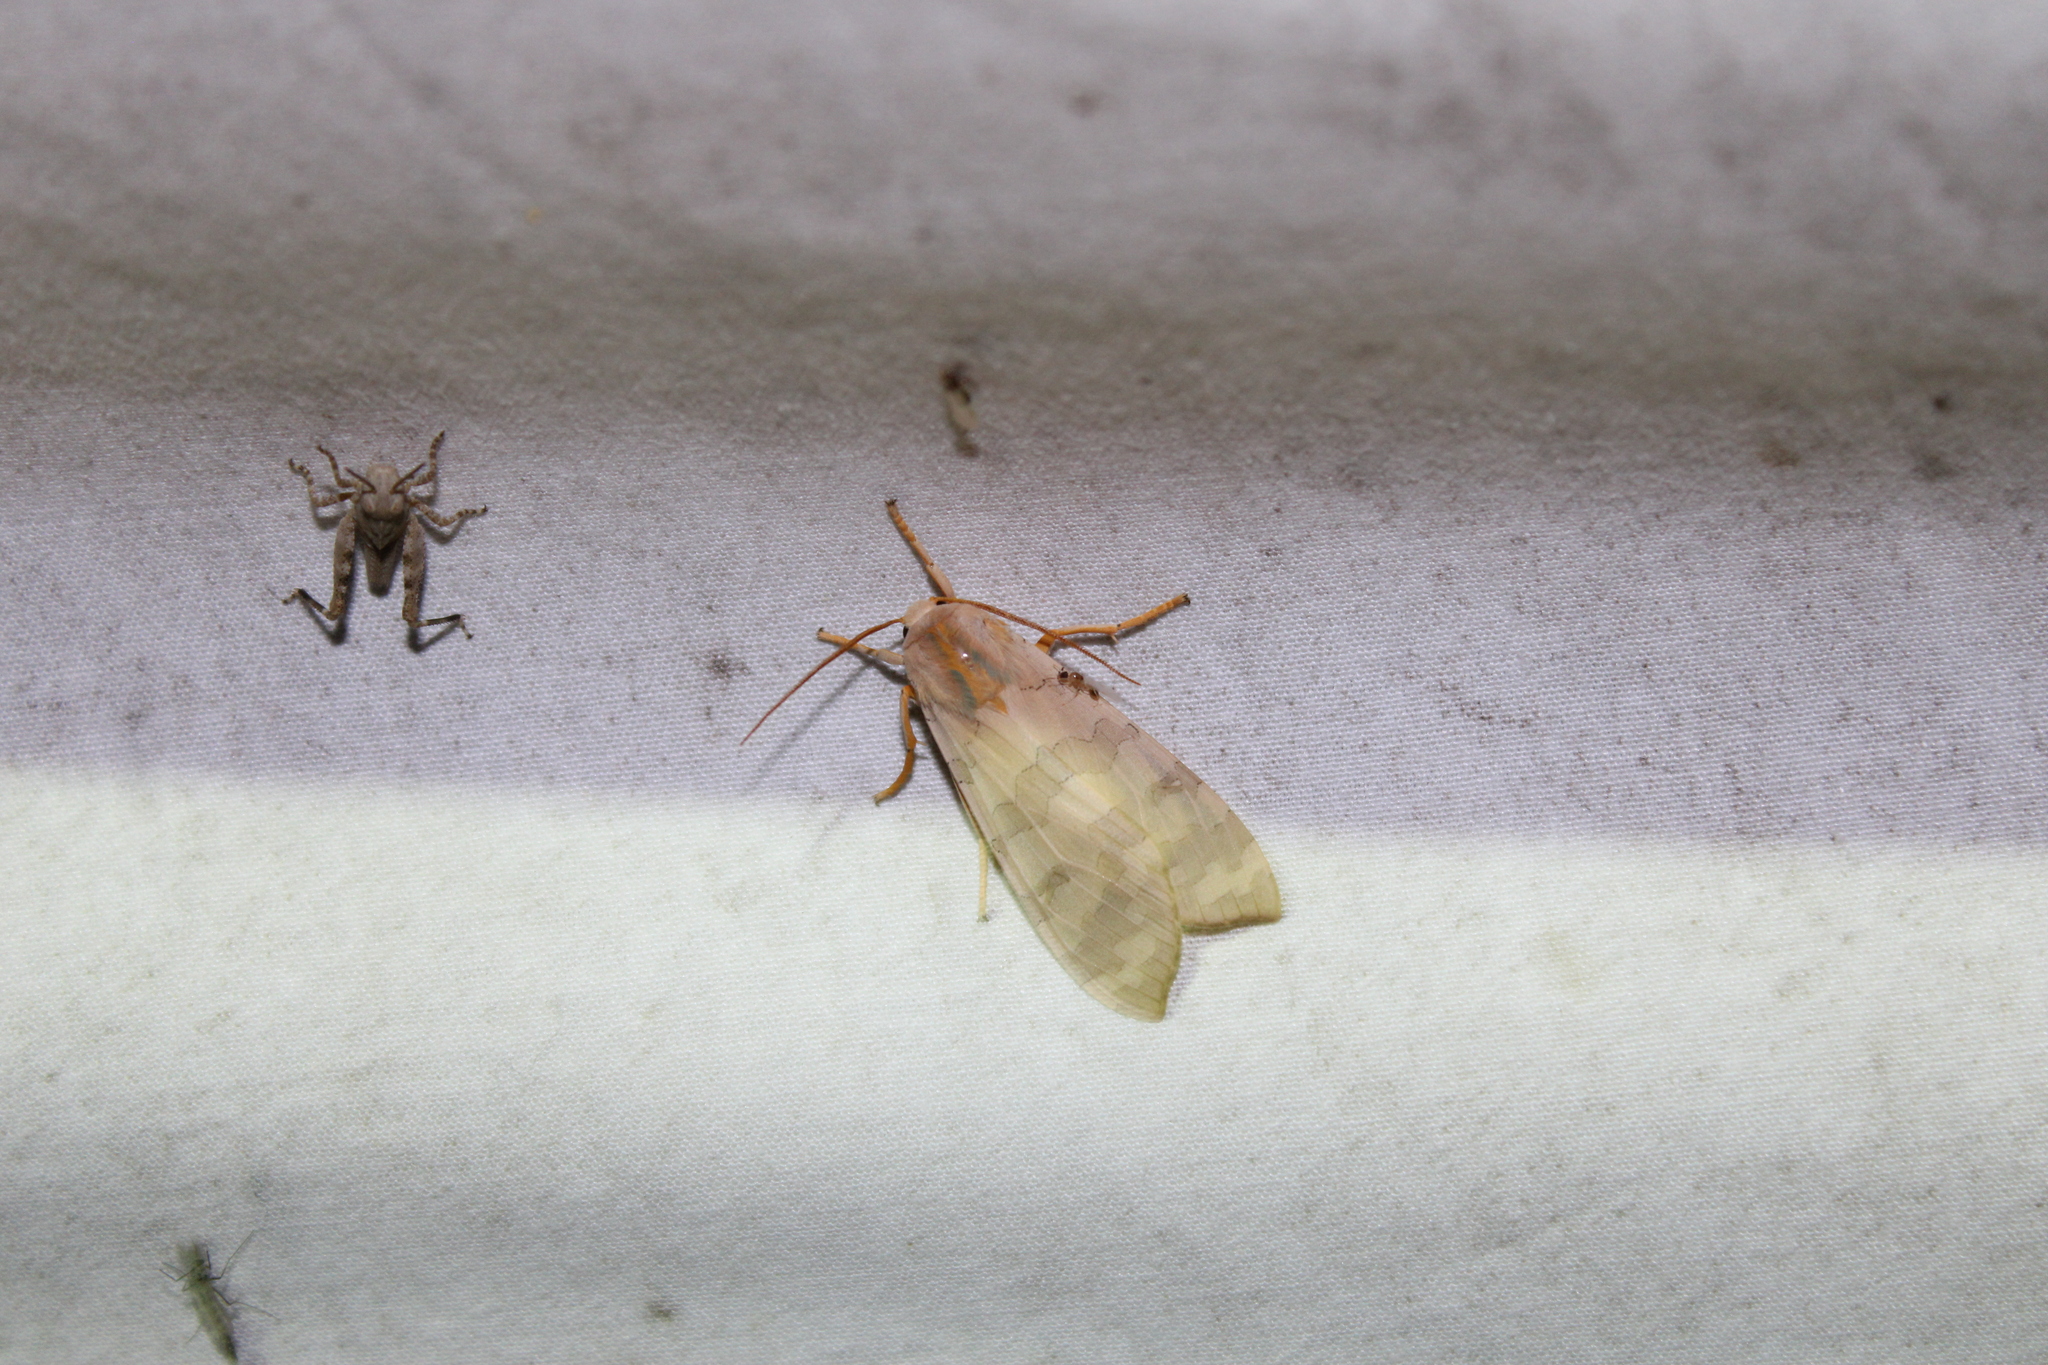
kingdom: Animalia
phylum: Arthropoda
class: Insecta
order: Lepidoptera
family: Erebidae
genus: Halysidota
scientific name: Halysidota
